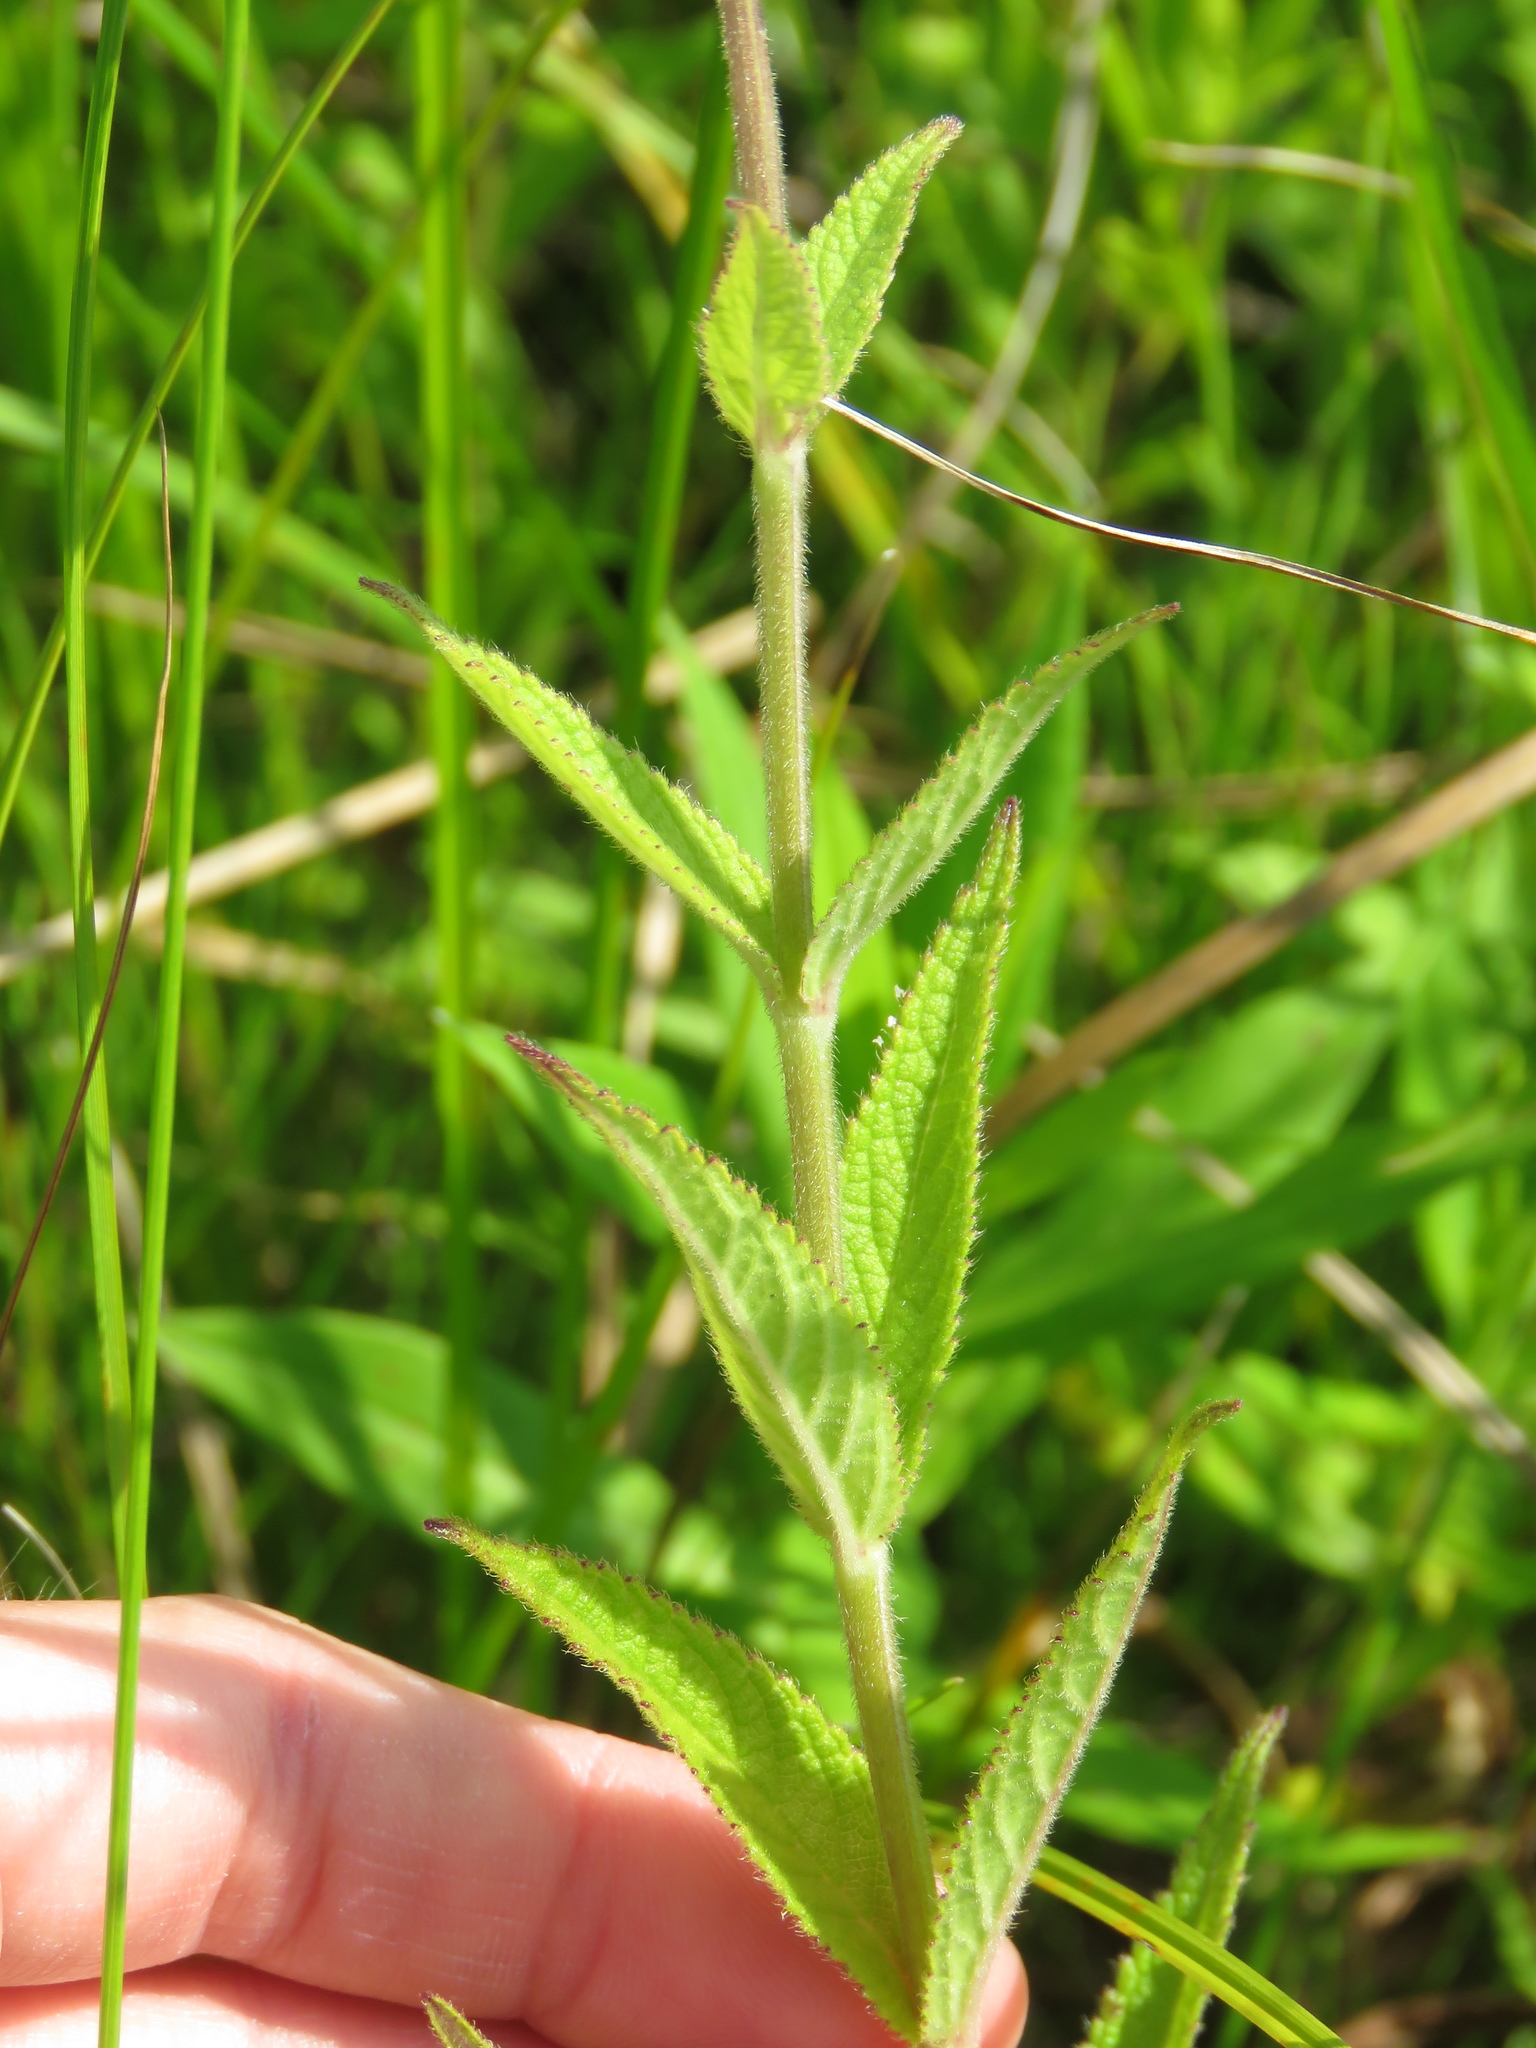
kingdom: Plantae
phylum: Tracheophyta
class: Magnoliopsida
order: Lamiales
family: Lamiaceae
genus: Stachys
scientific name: Stachys pilosa
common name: Hairy hedge-nettle
